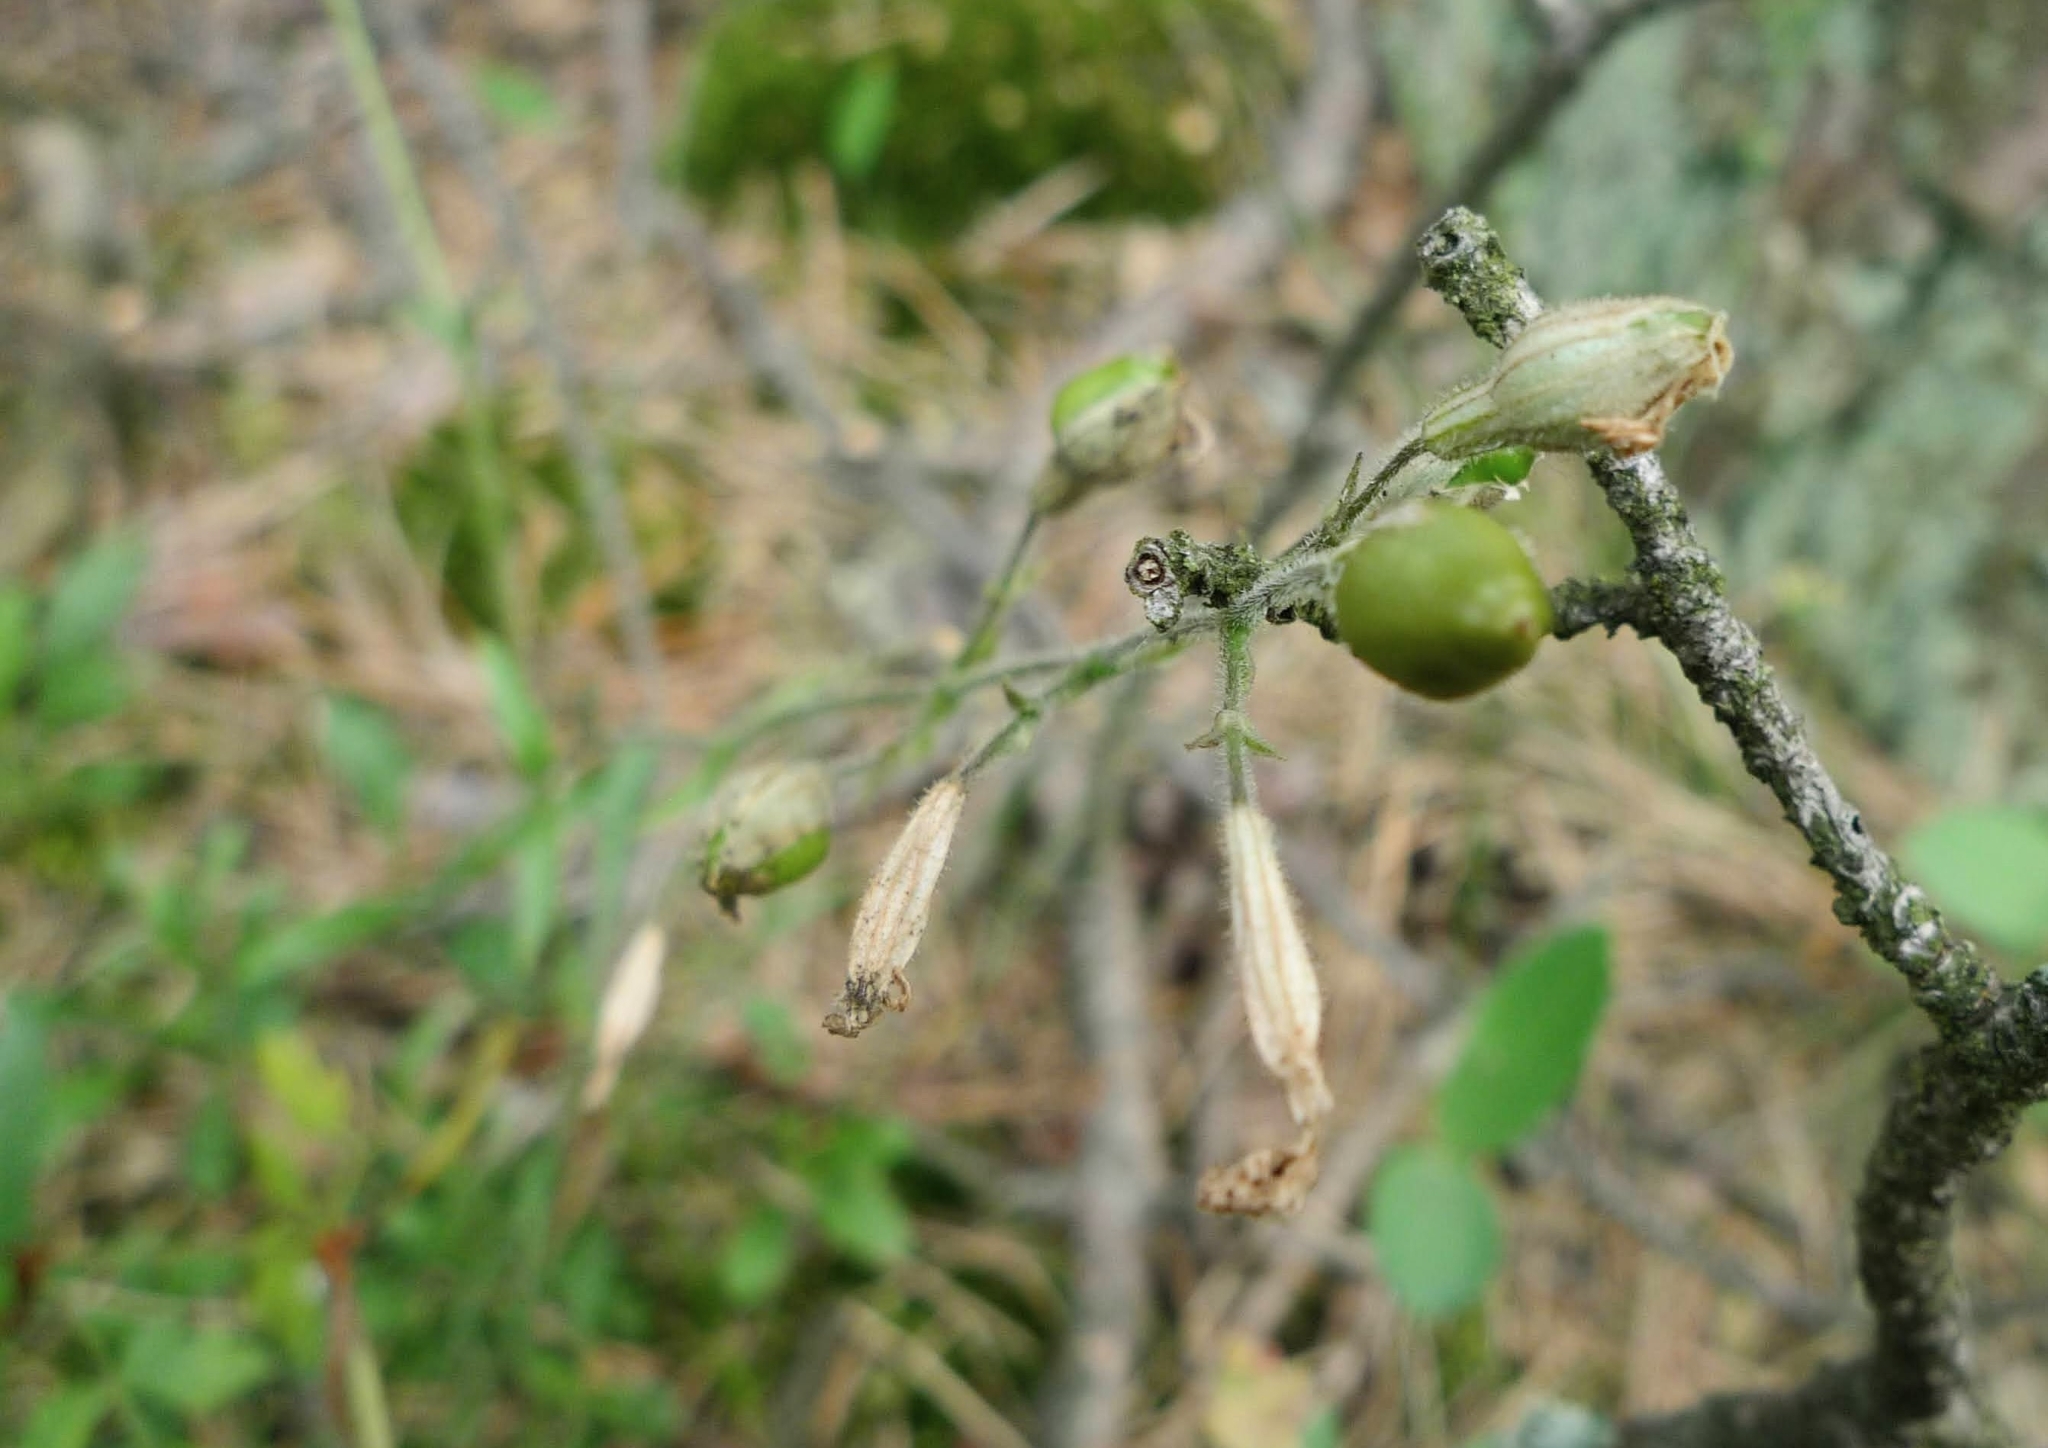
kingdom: Plantae
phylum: Tracheophyta
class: Magnoliopsida
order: Caryophyllales
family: Caryophyllaceae
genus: Silene
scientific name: Silene nutans
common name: Nottingham catchfly
